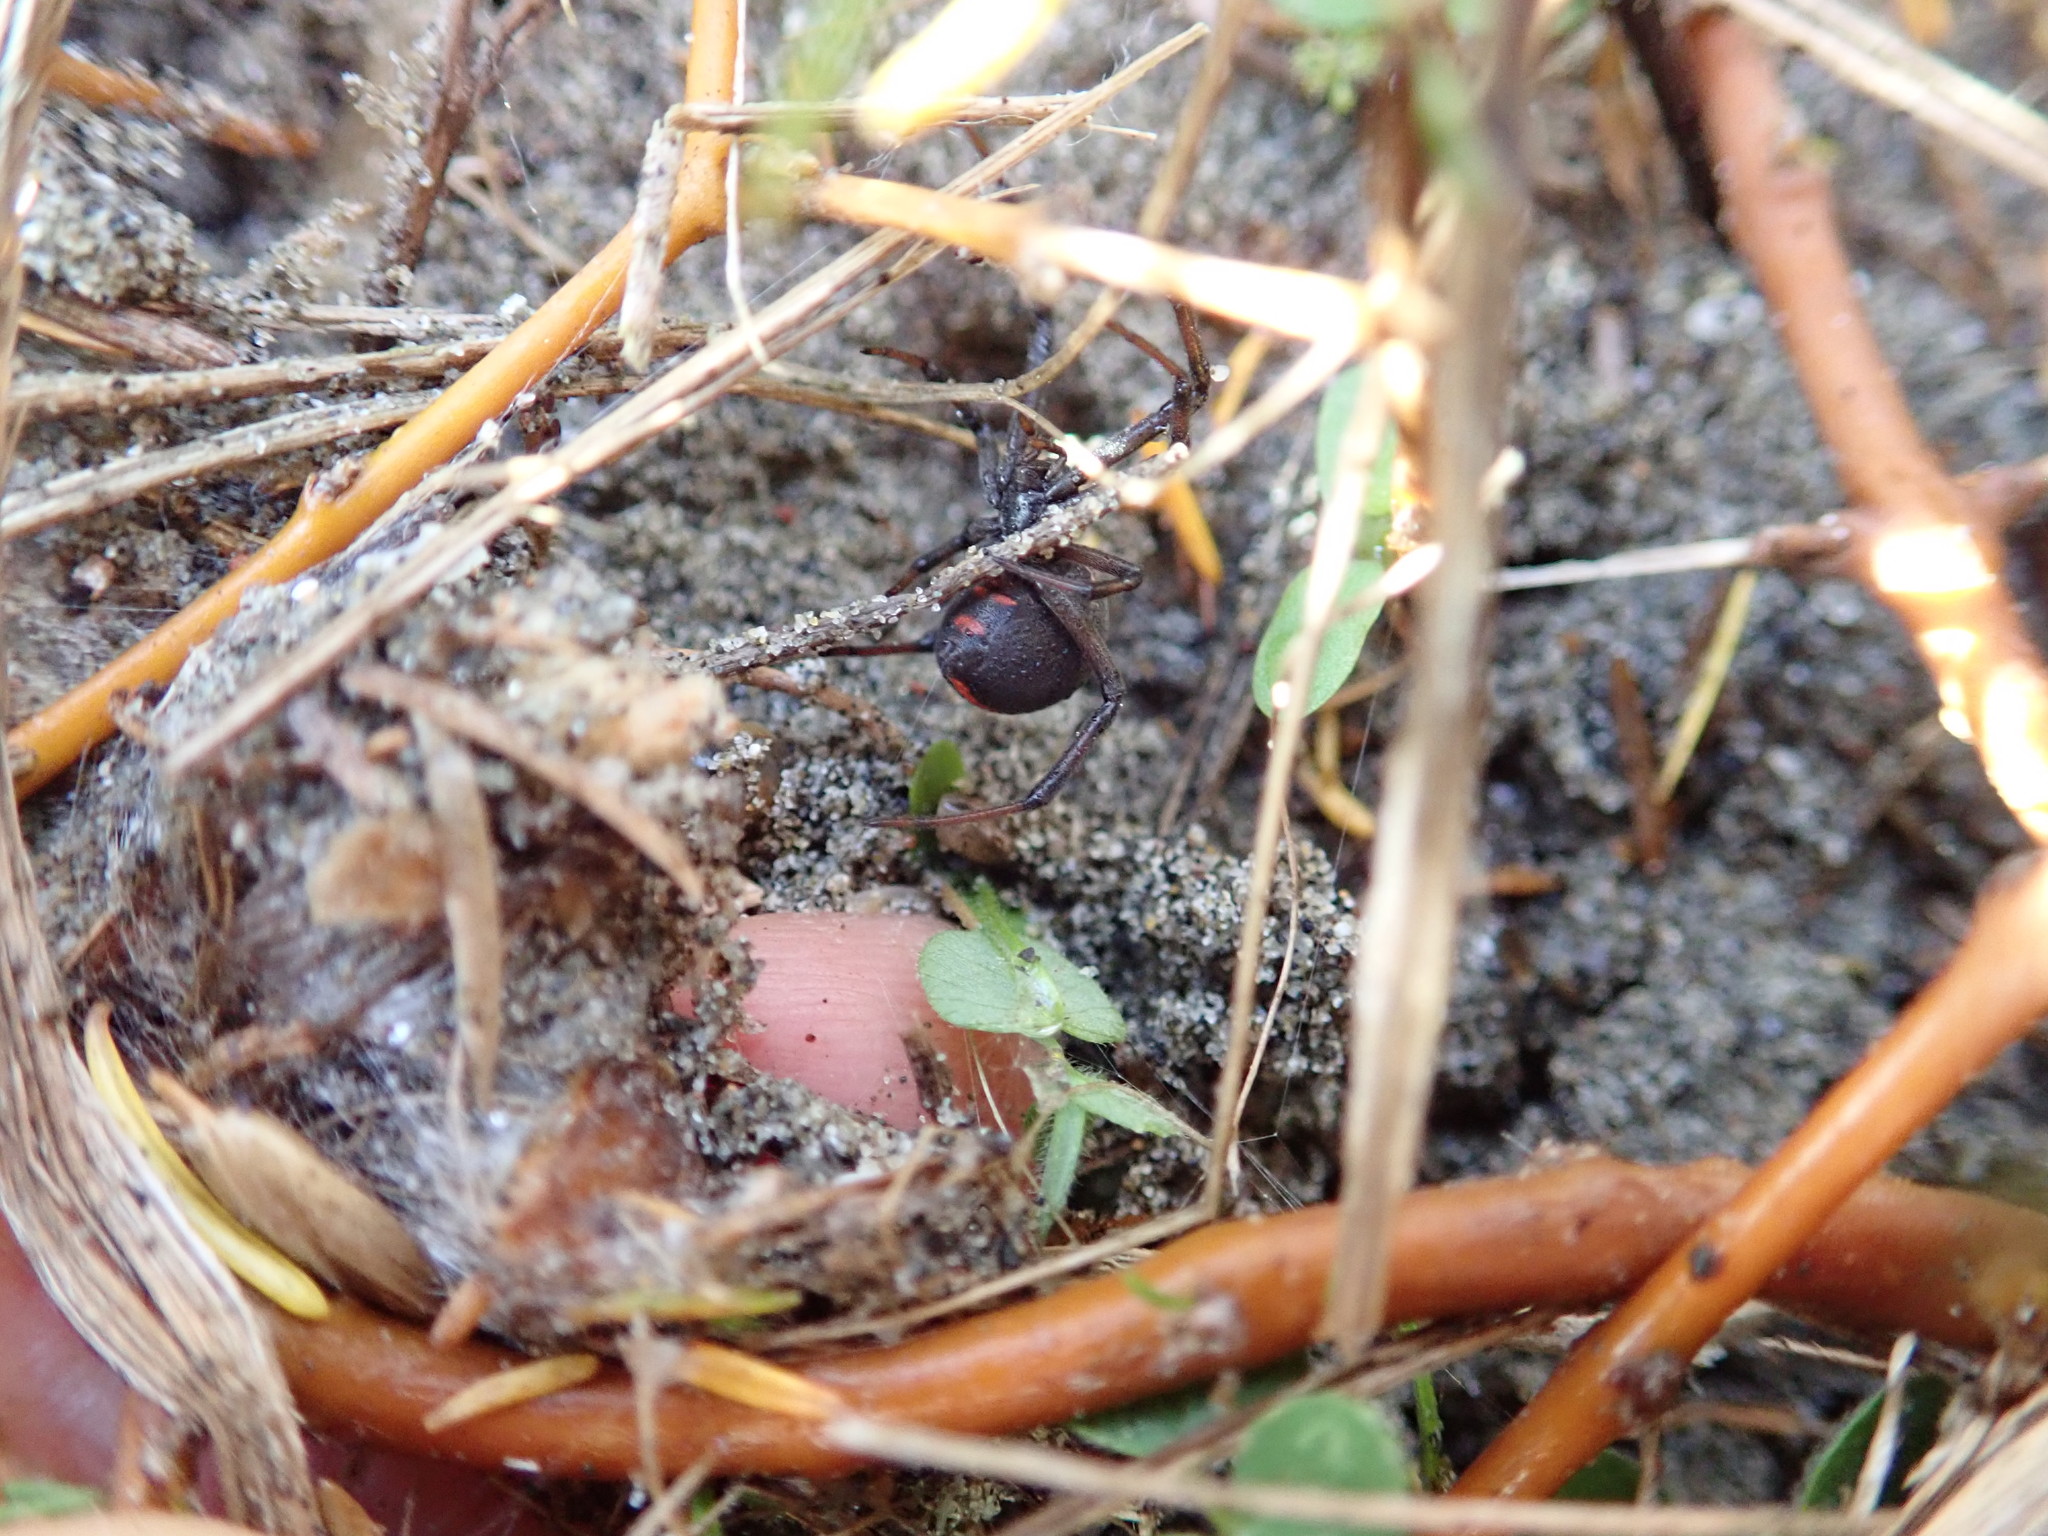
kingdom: Animalia
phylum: Arthropoda
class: Arachnida
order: Araneae
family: Theridiidae
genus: Latrodectus
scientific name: Latrodectus katipo
